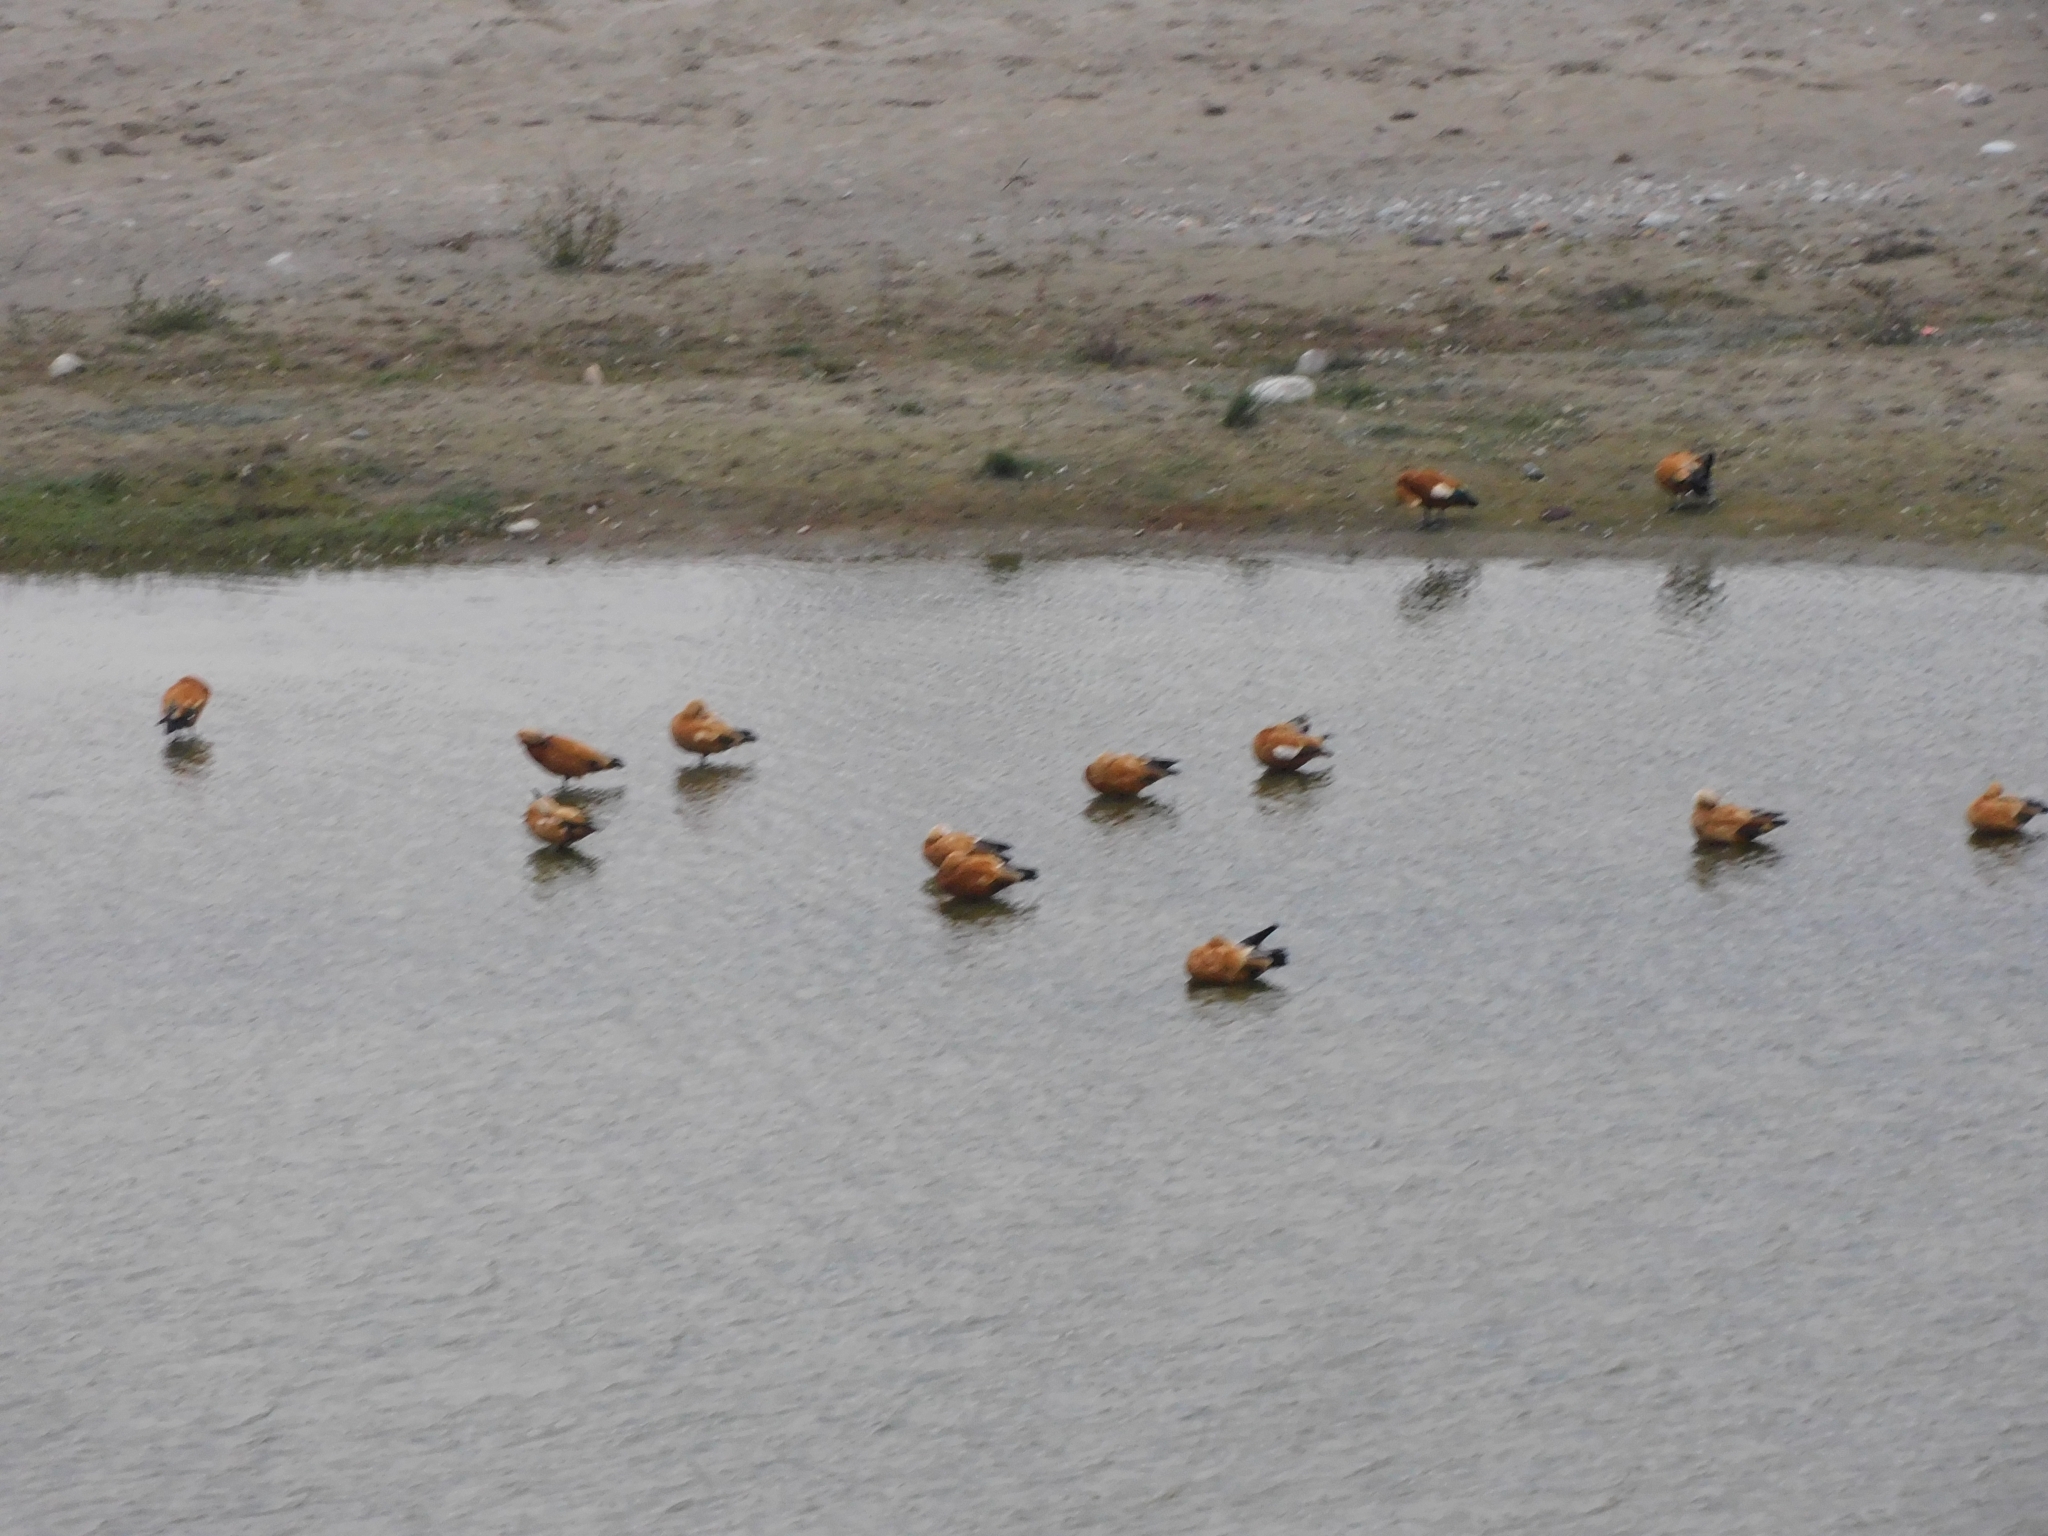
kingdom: Animalia
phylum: Chordata
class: Aves
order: Anseriformes
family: Anatidae
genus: Tadorna
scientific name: Tadorna ferruginea
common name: Ruddy shelduck
